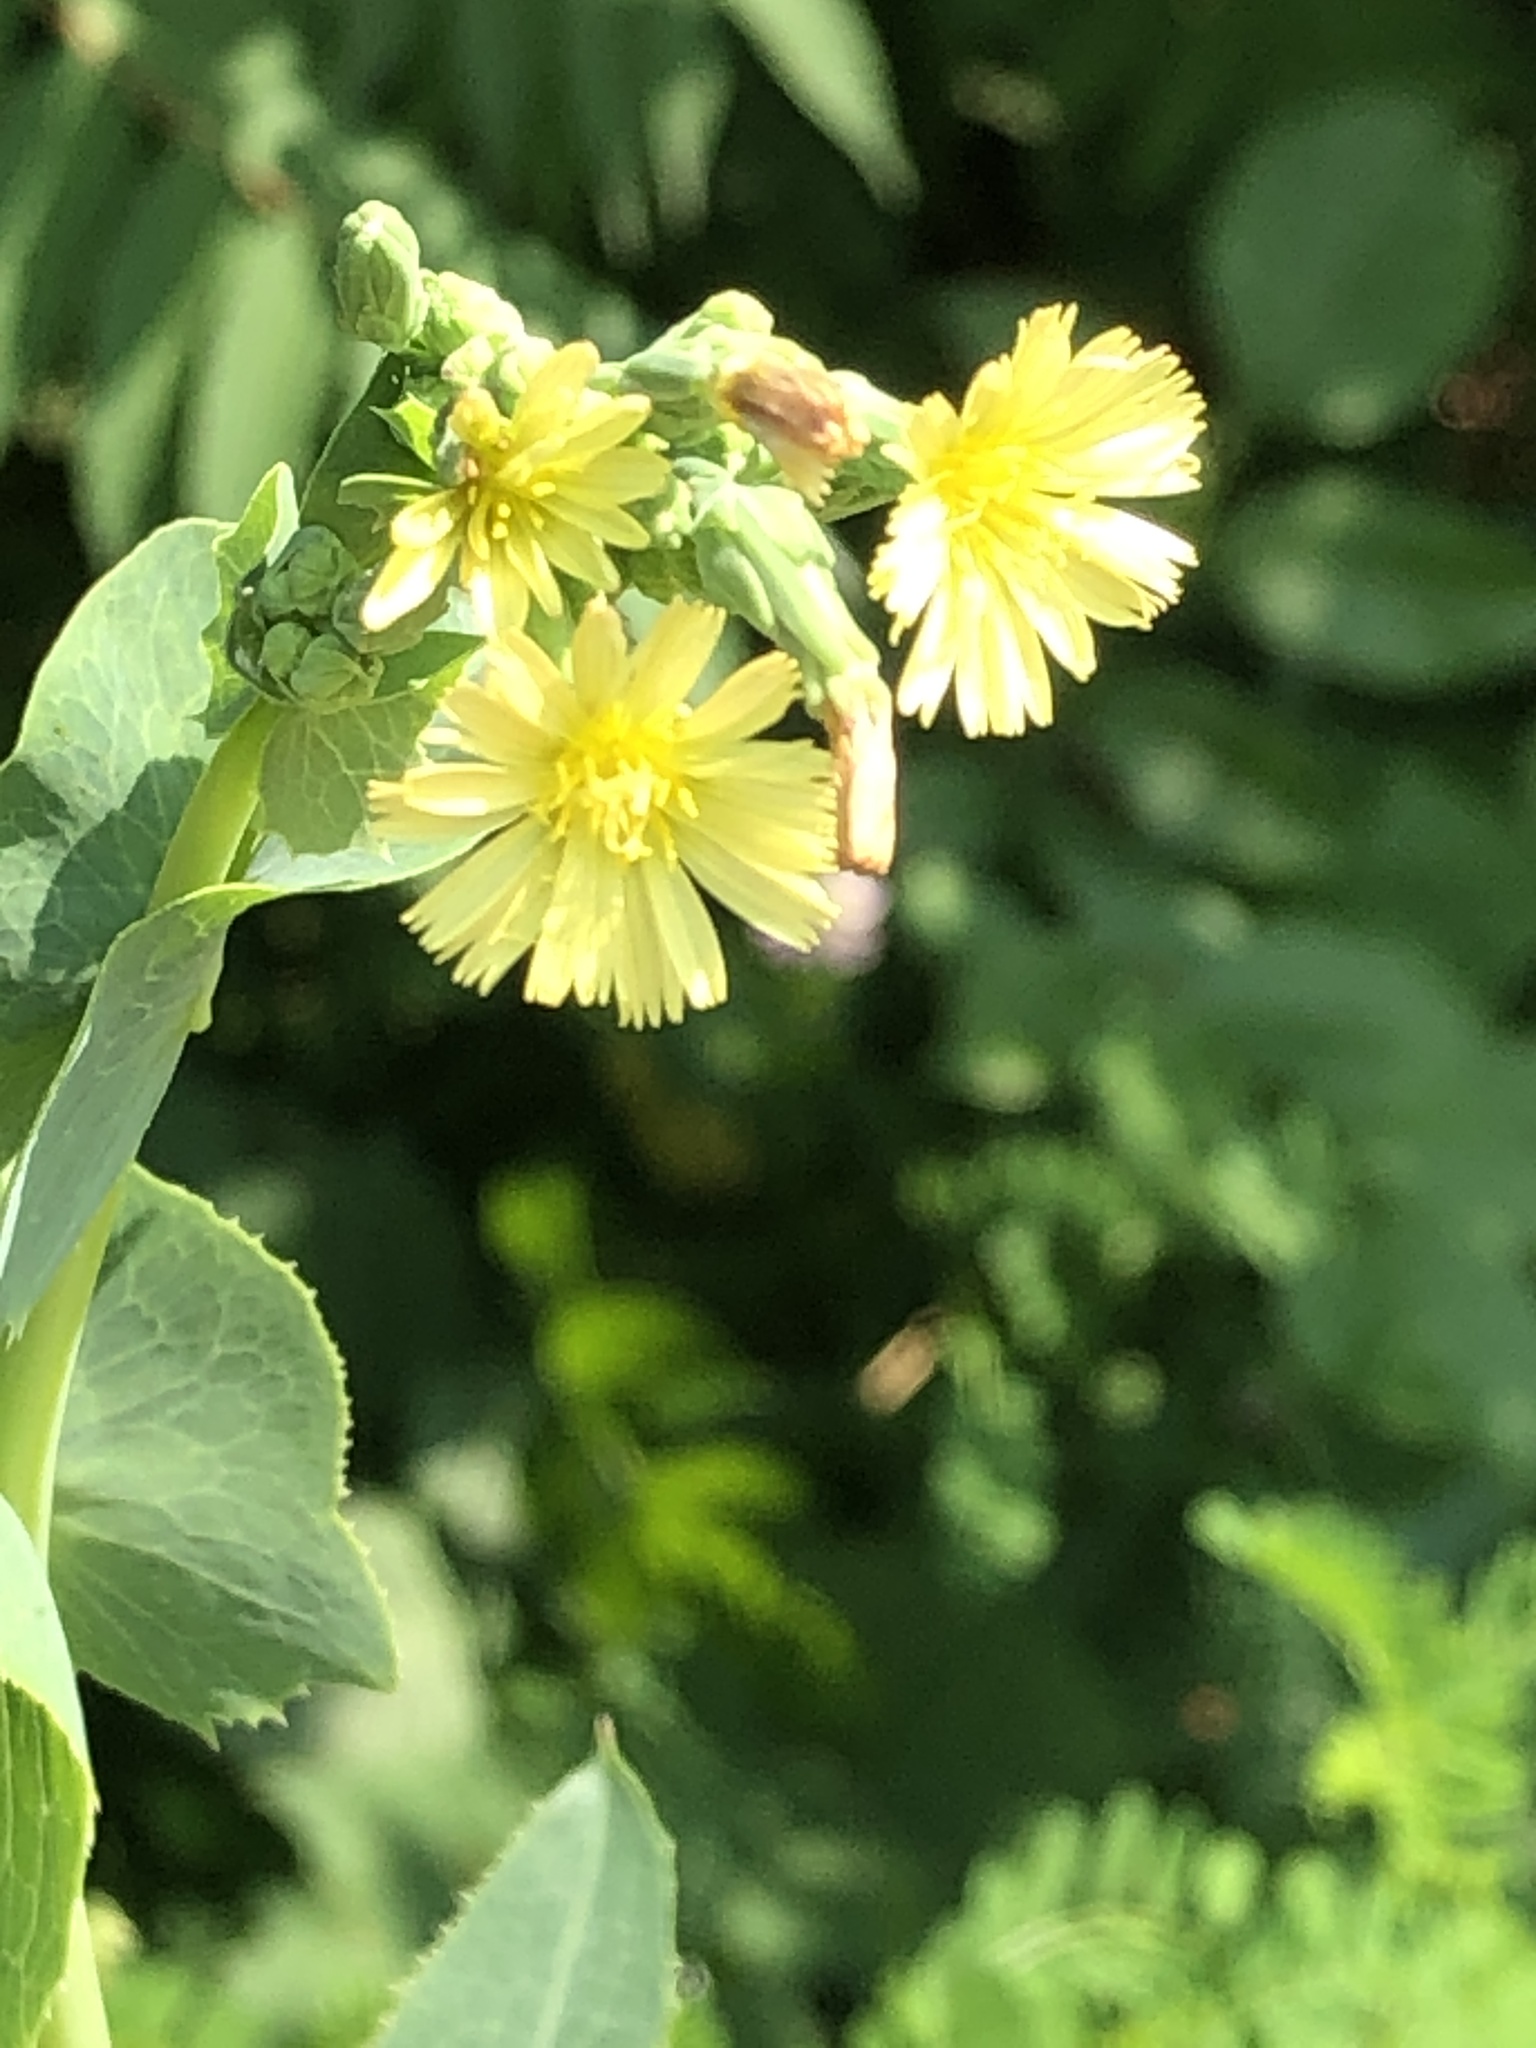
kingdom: Plantae
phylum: Tracheophyta
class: Magnoliopsida
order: Asterales
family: Asteraceae
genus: Lactuca
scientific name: Lactuca serriola
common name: Prickly lettuce
